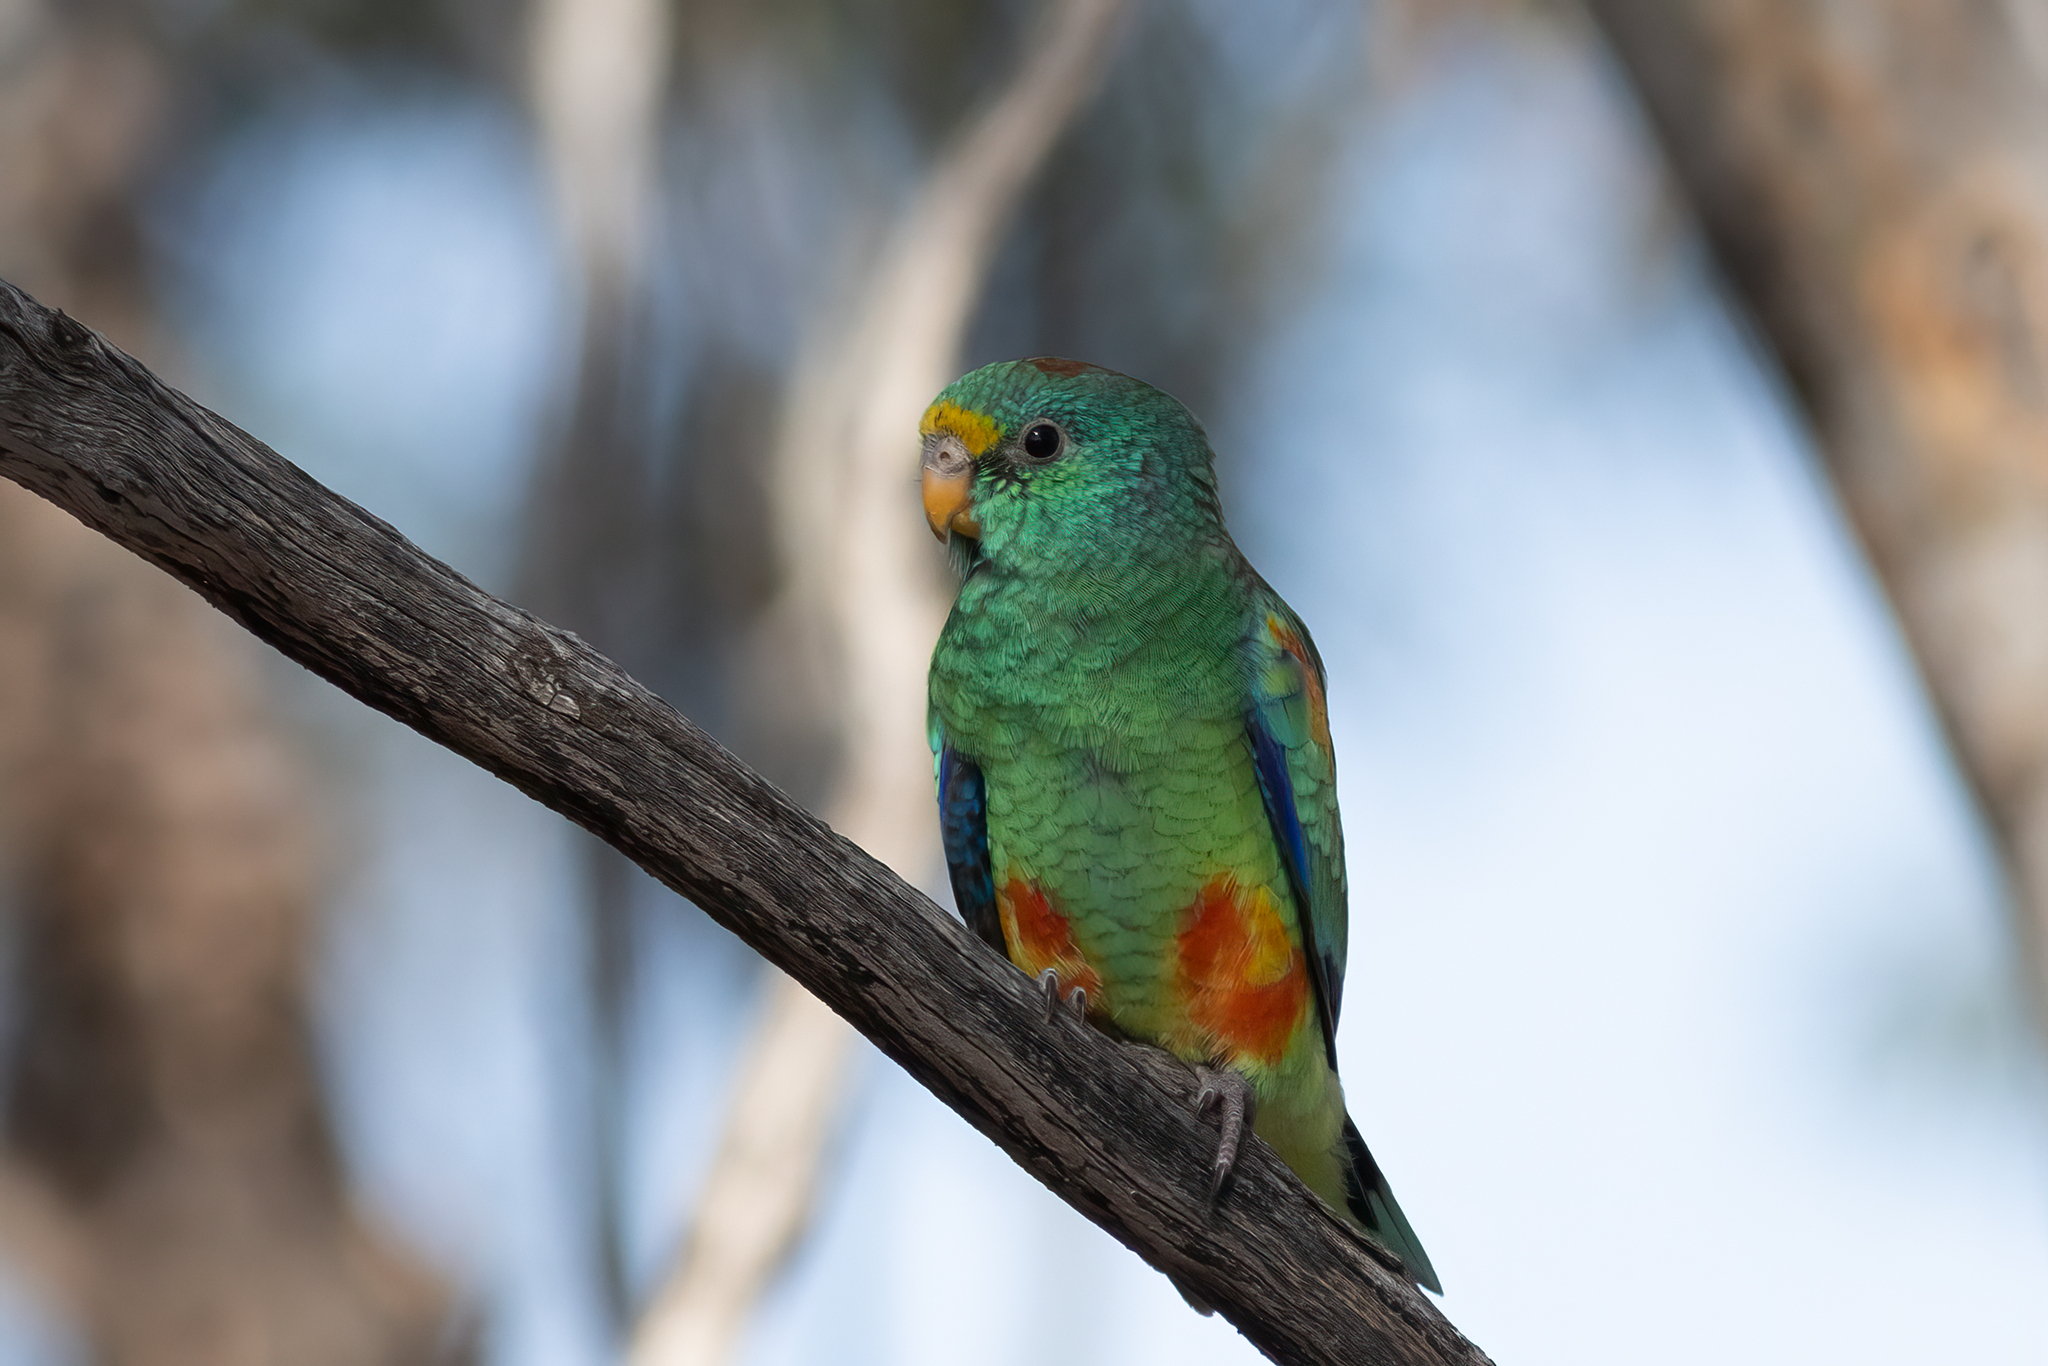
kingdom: Animalia
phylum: Chordata
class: Aves
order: Psittaciformes
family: Psittaculidae
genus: Psephotellus
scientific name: Psephotellus varius
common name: Mulga parrot
